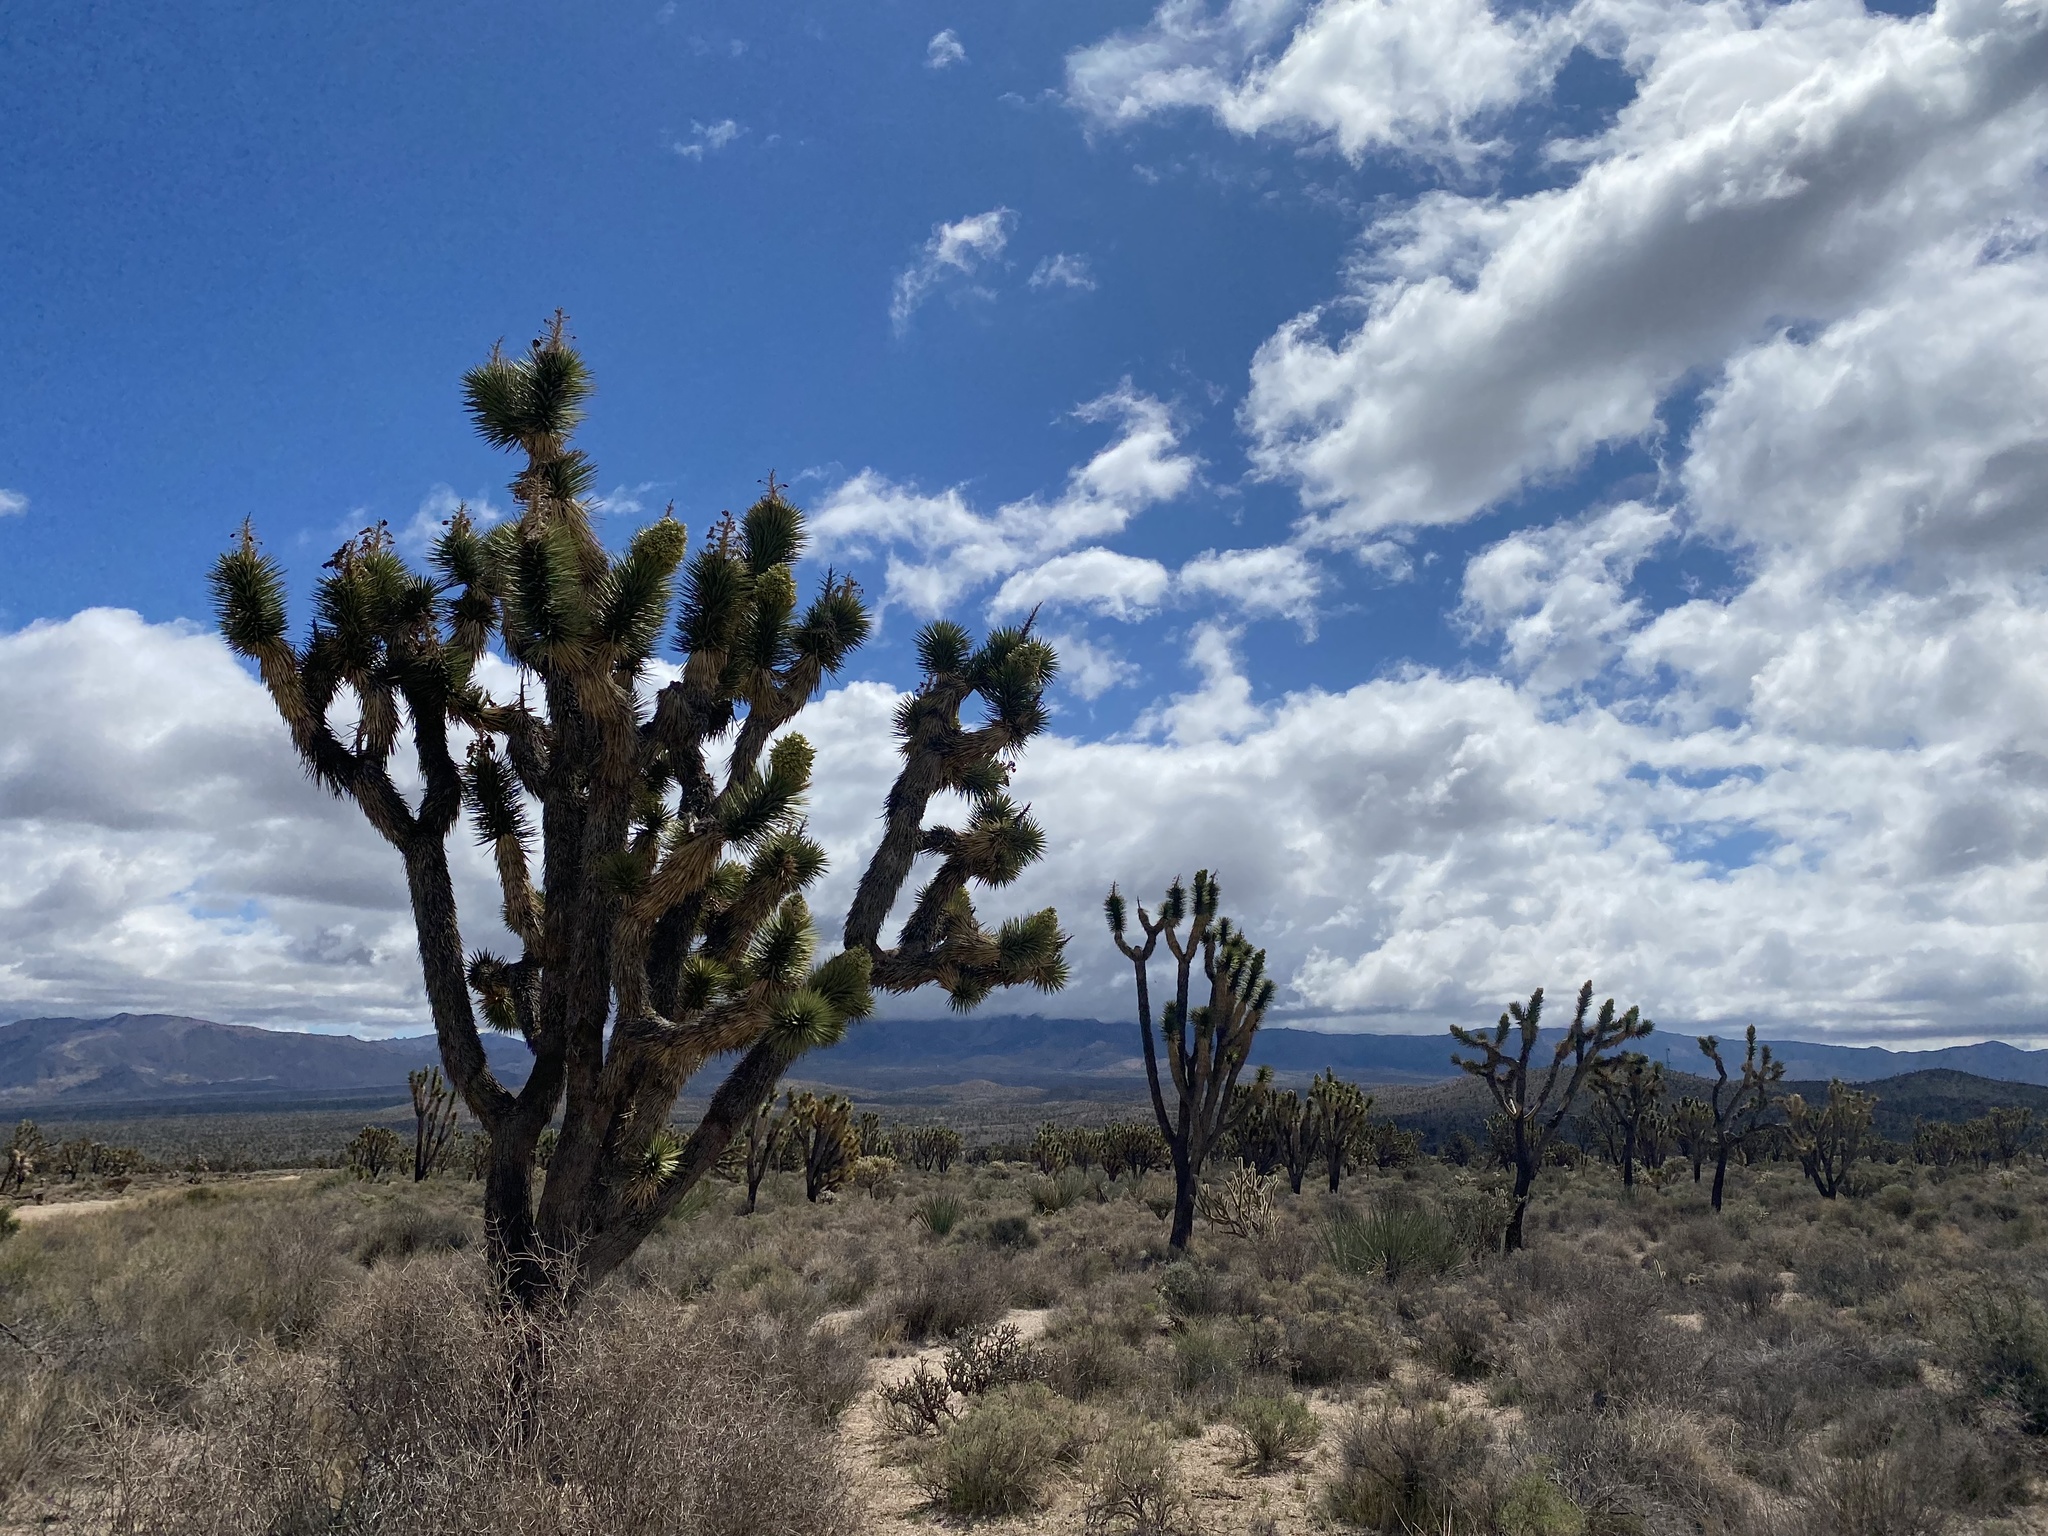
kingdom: Plantae
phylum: Tracheophyta
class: Liliopsida
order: Asparagales
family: Asparagaceae
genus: Yucca
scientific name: Yucca brevifolia
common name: Joshua tree
